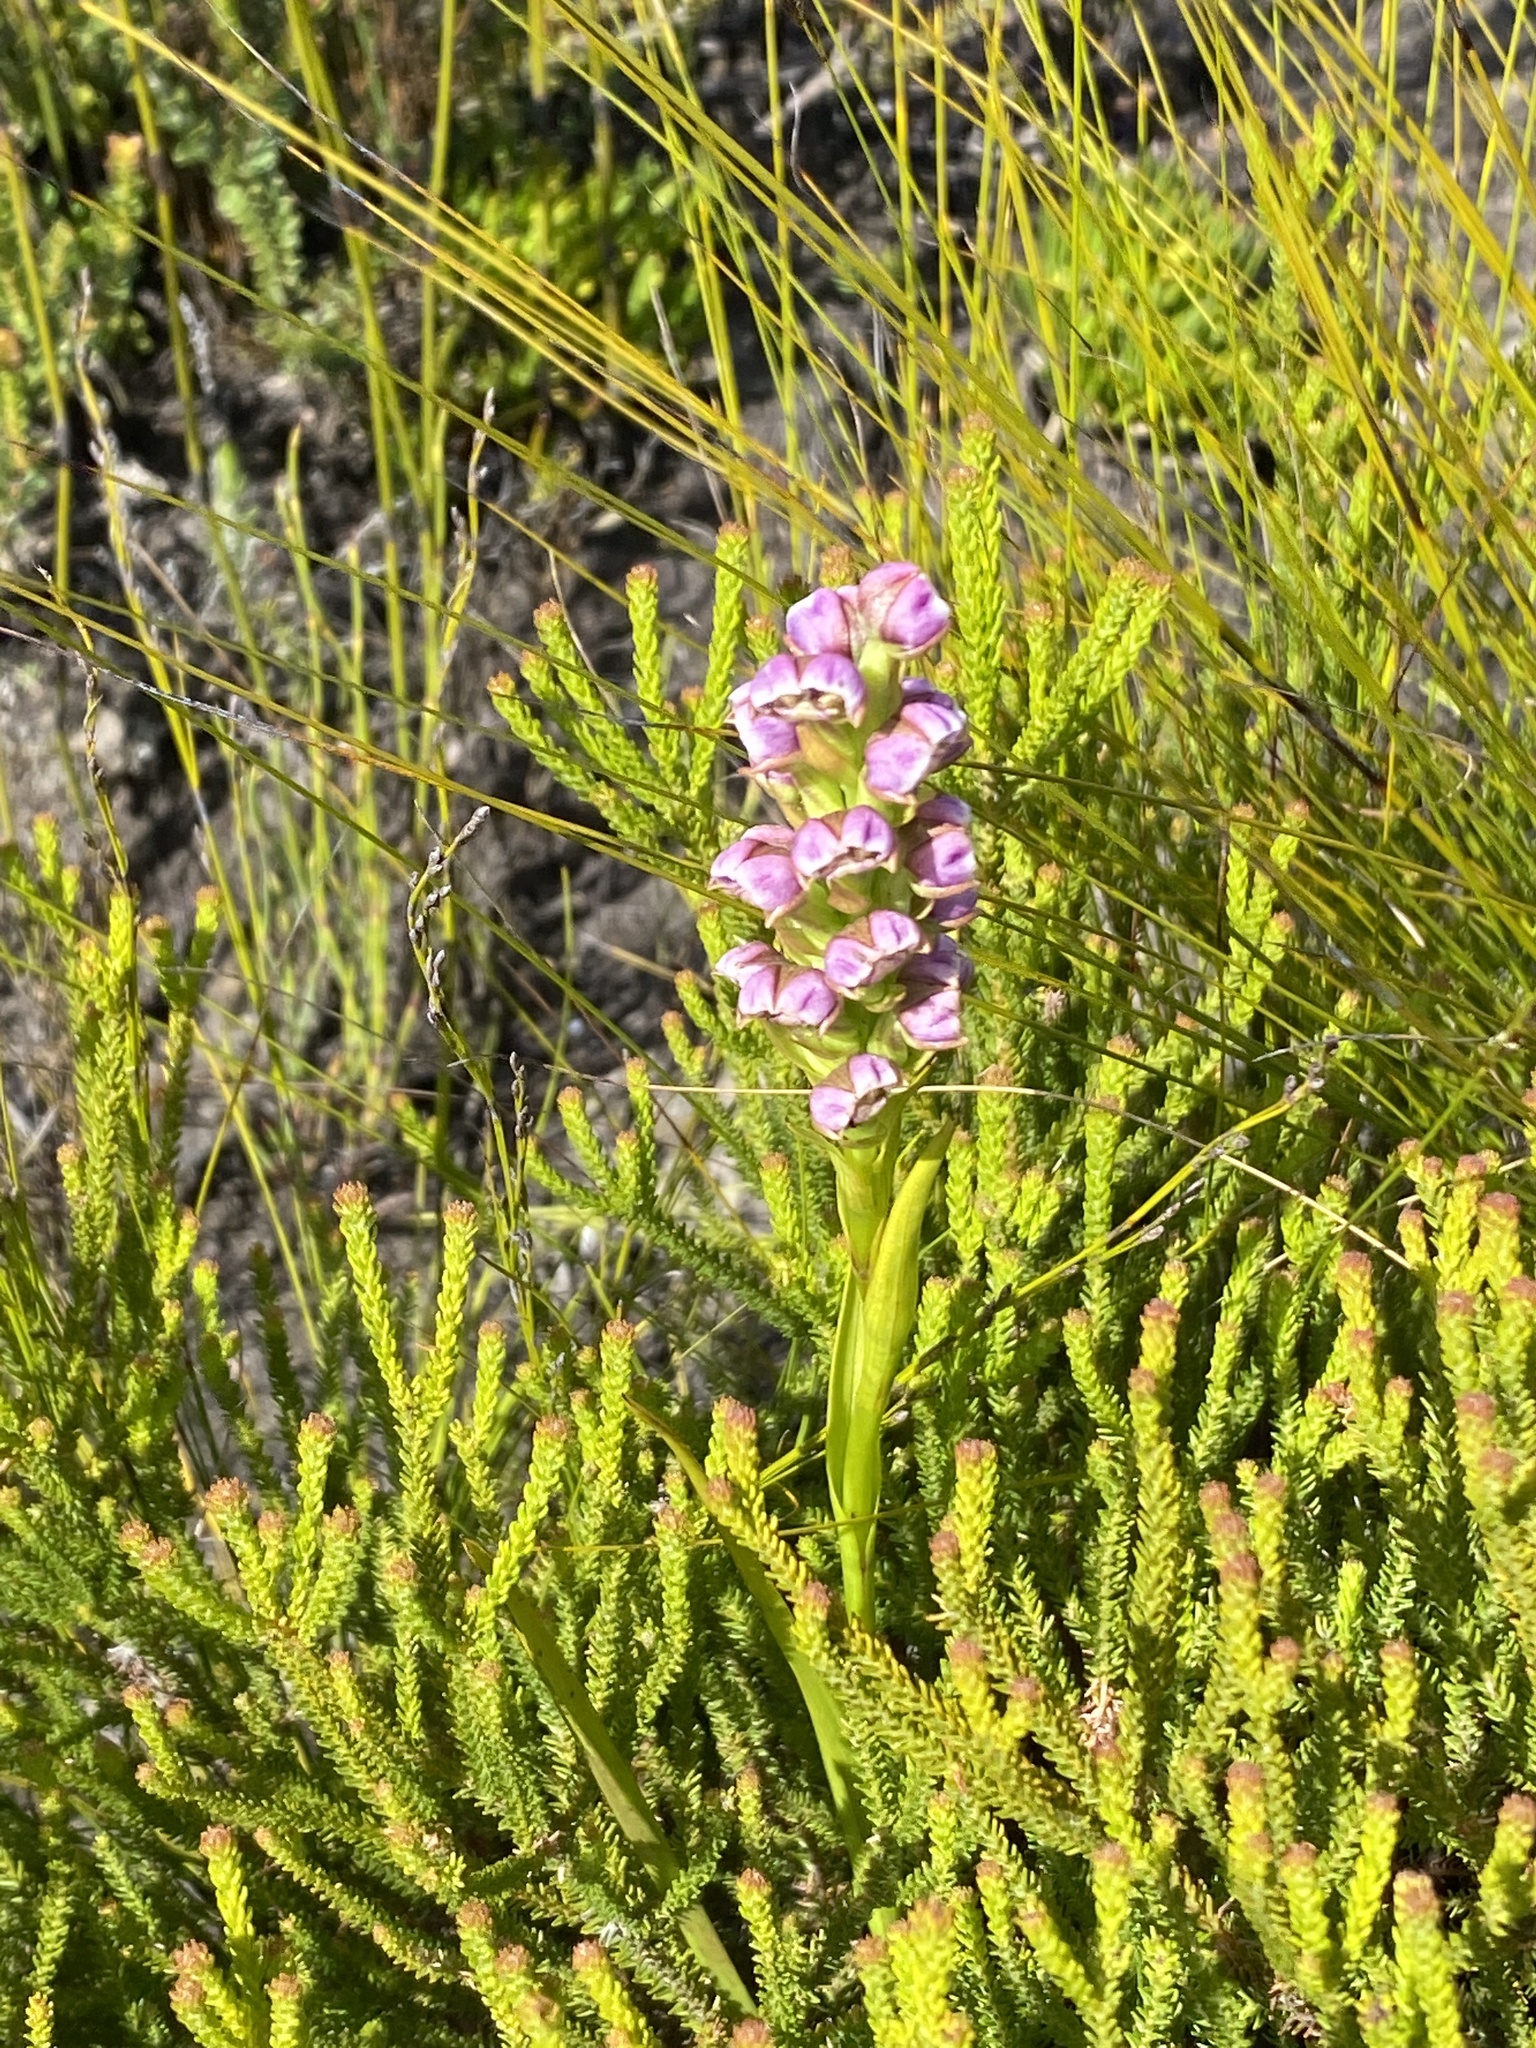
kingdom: Plantae
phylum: Tracheophyta
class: Liliopsida
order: Asparagales
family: Orchidaceae
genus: Evotella
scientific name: Evotella carnosa
